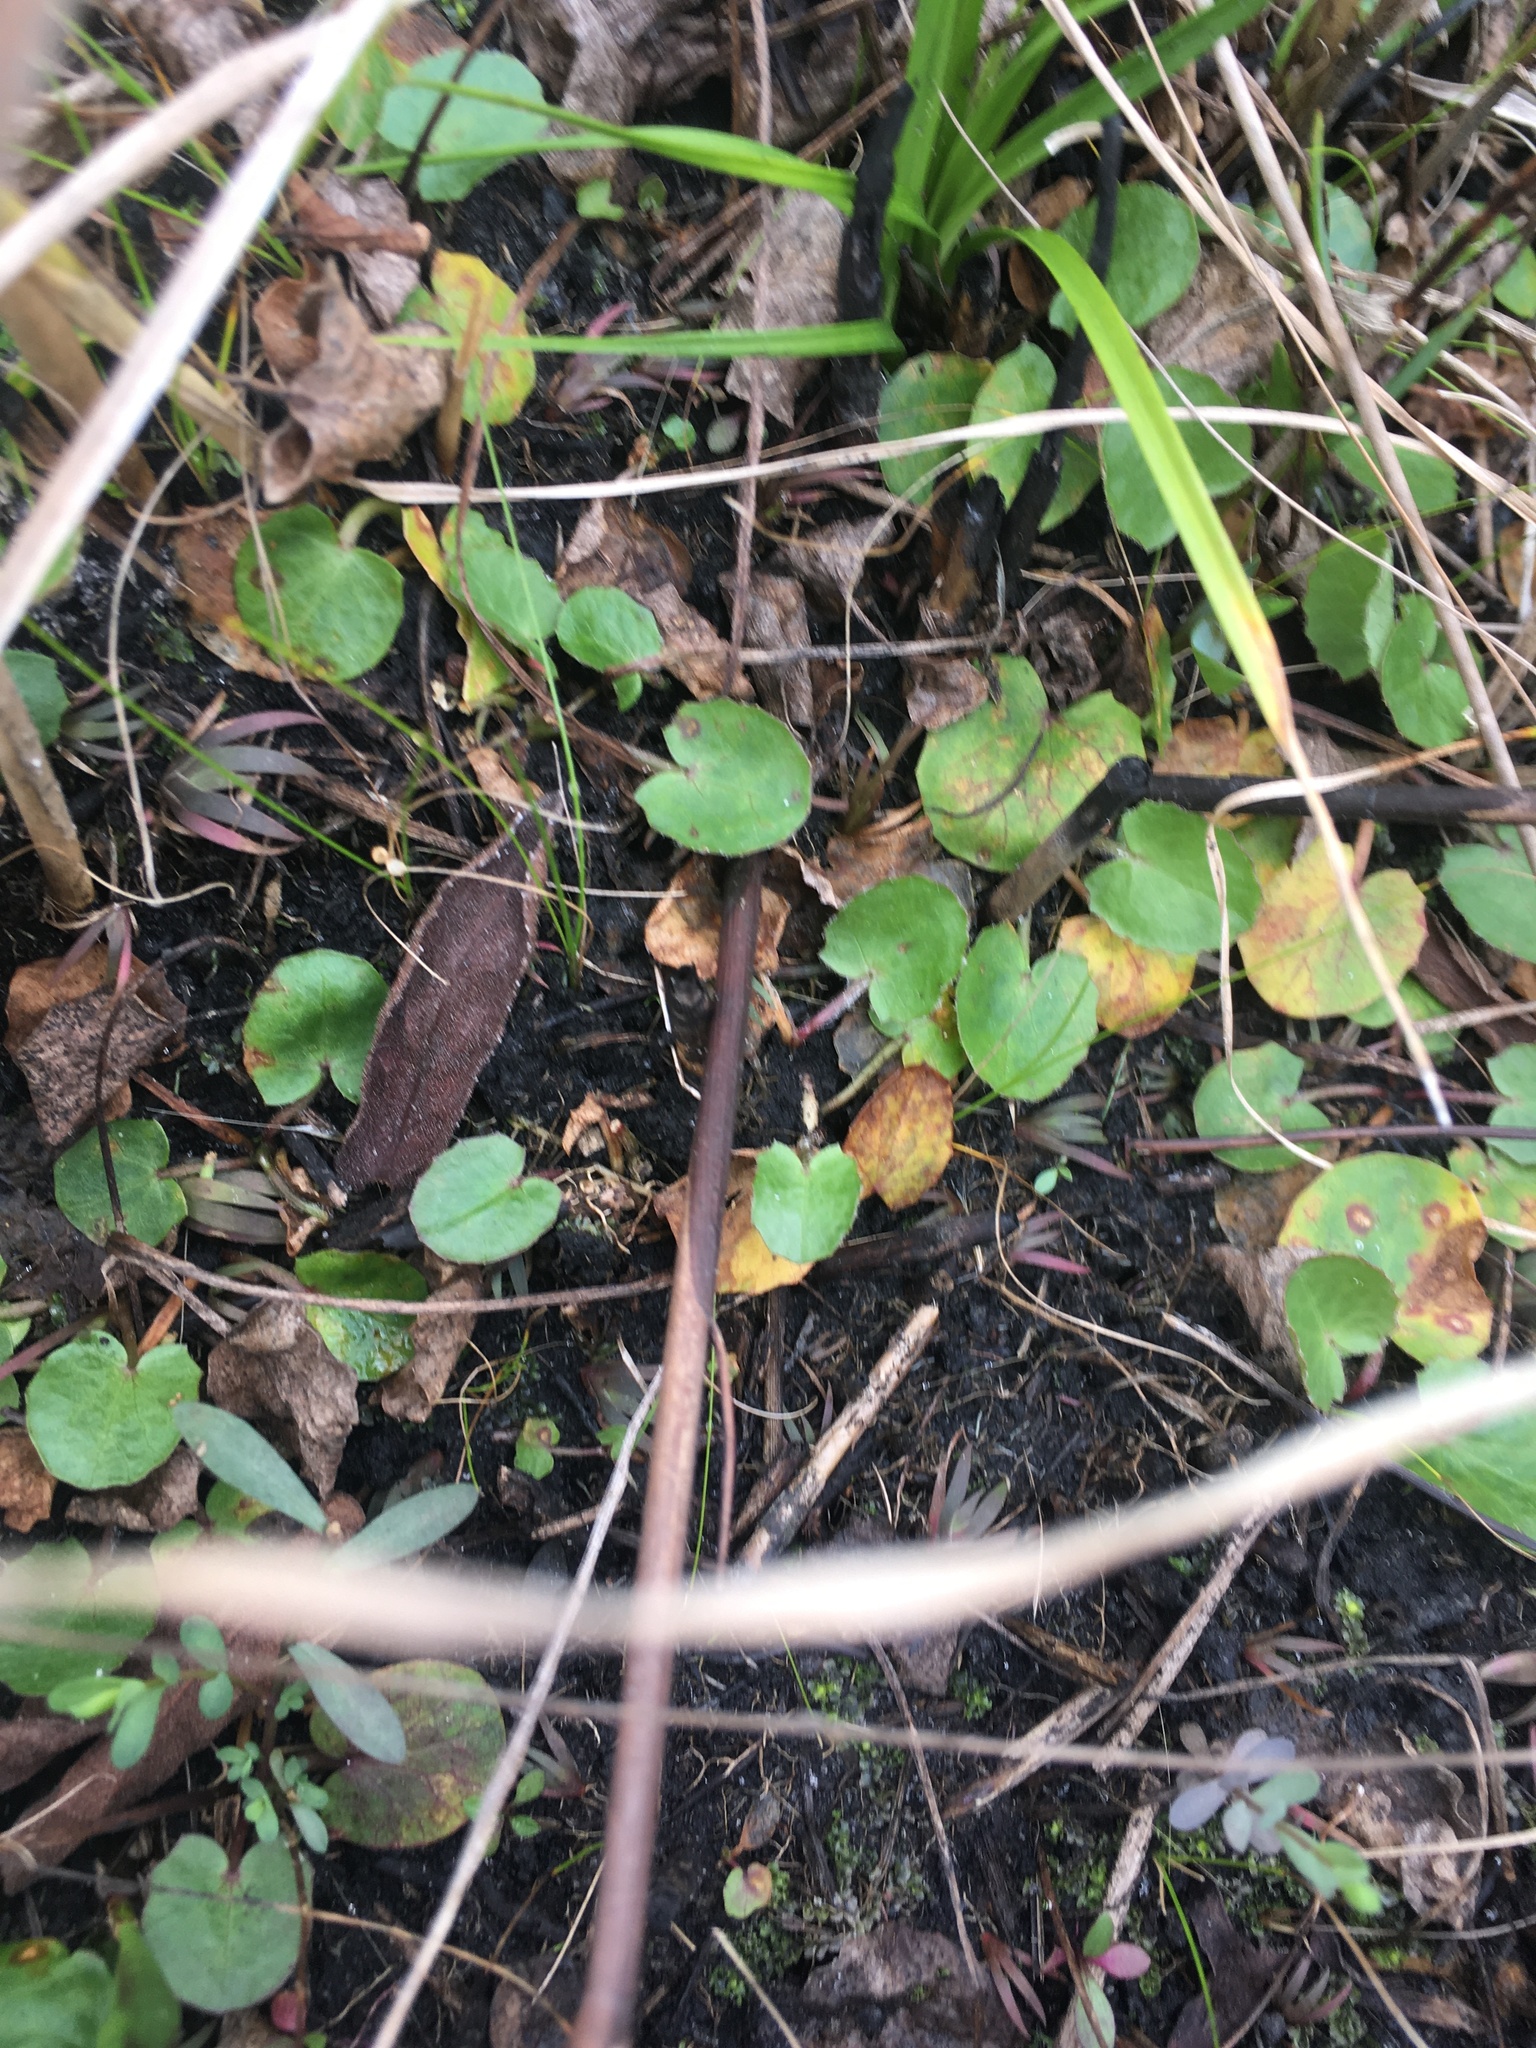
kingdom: Plantae
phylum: Tracheophyta
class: Magnoliopsida
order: Apiales
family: Apiaceae
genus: Centella
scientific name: Centella erecta
